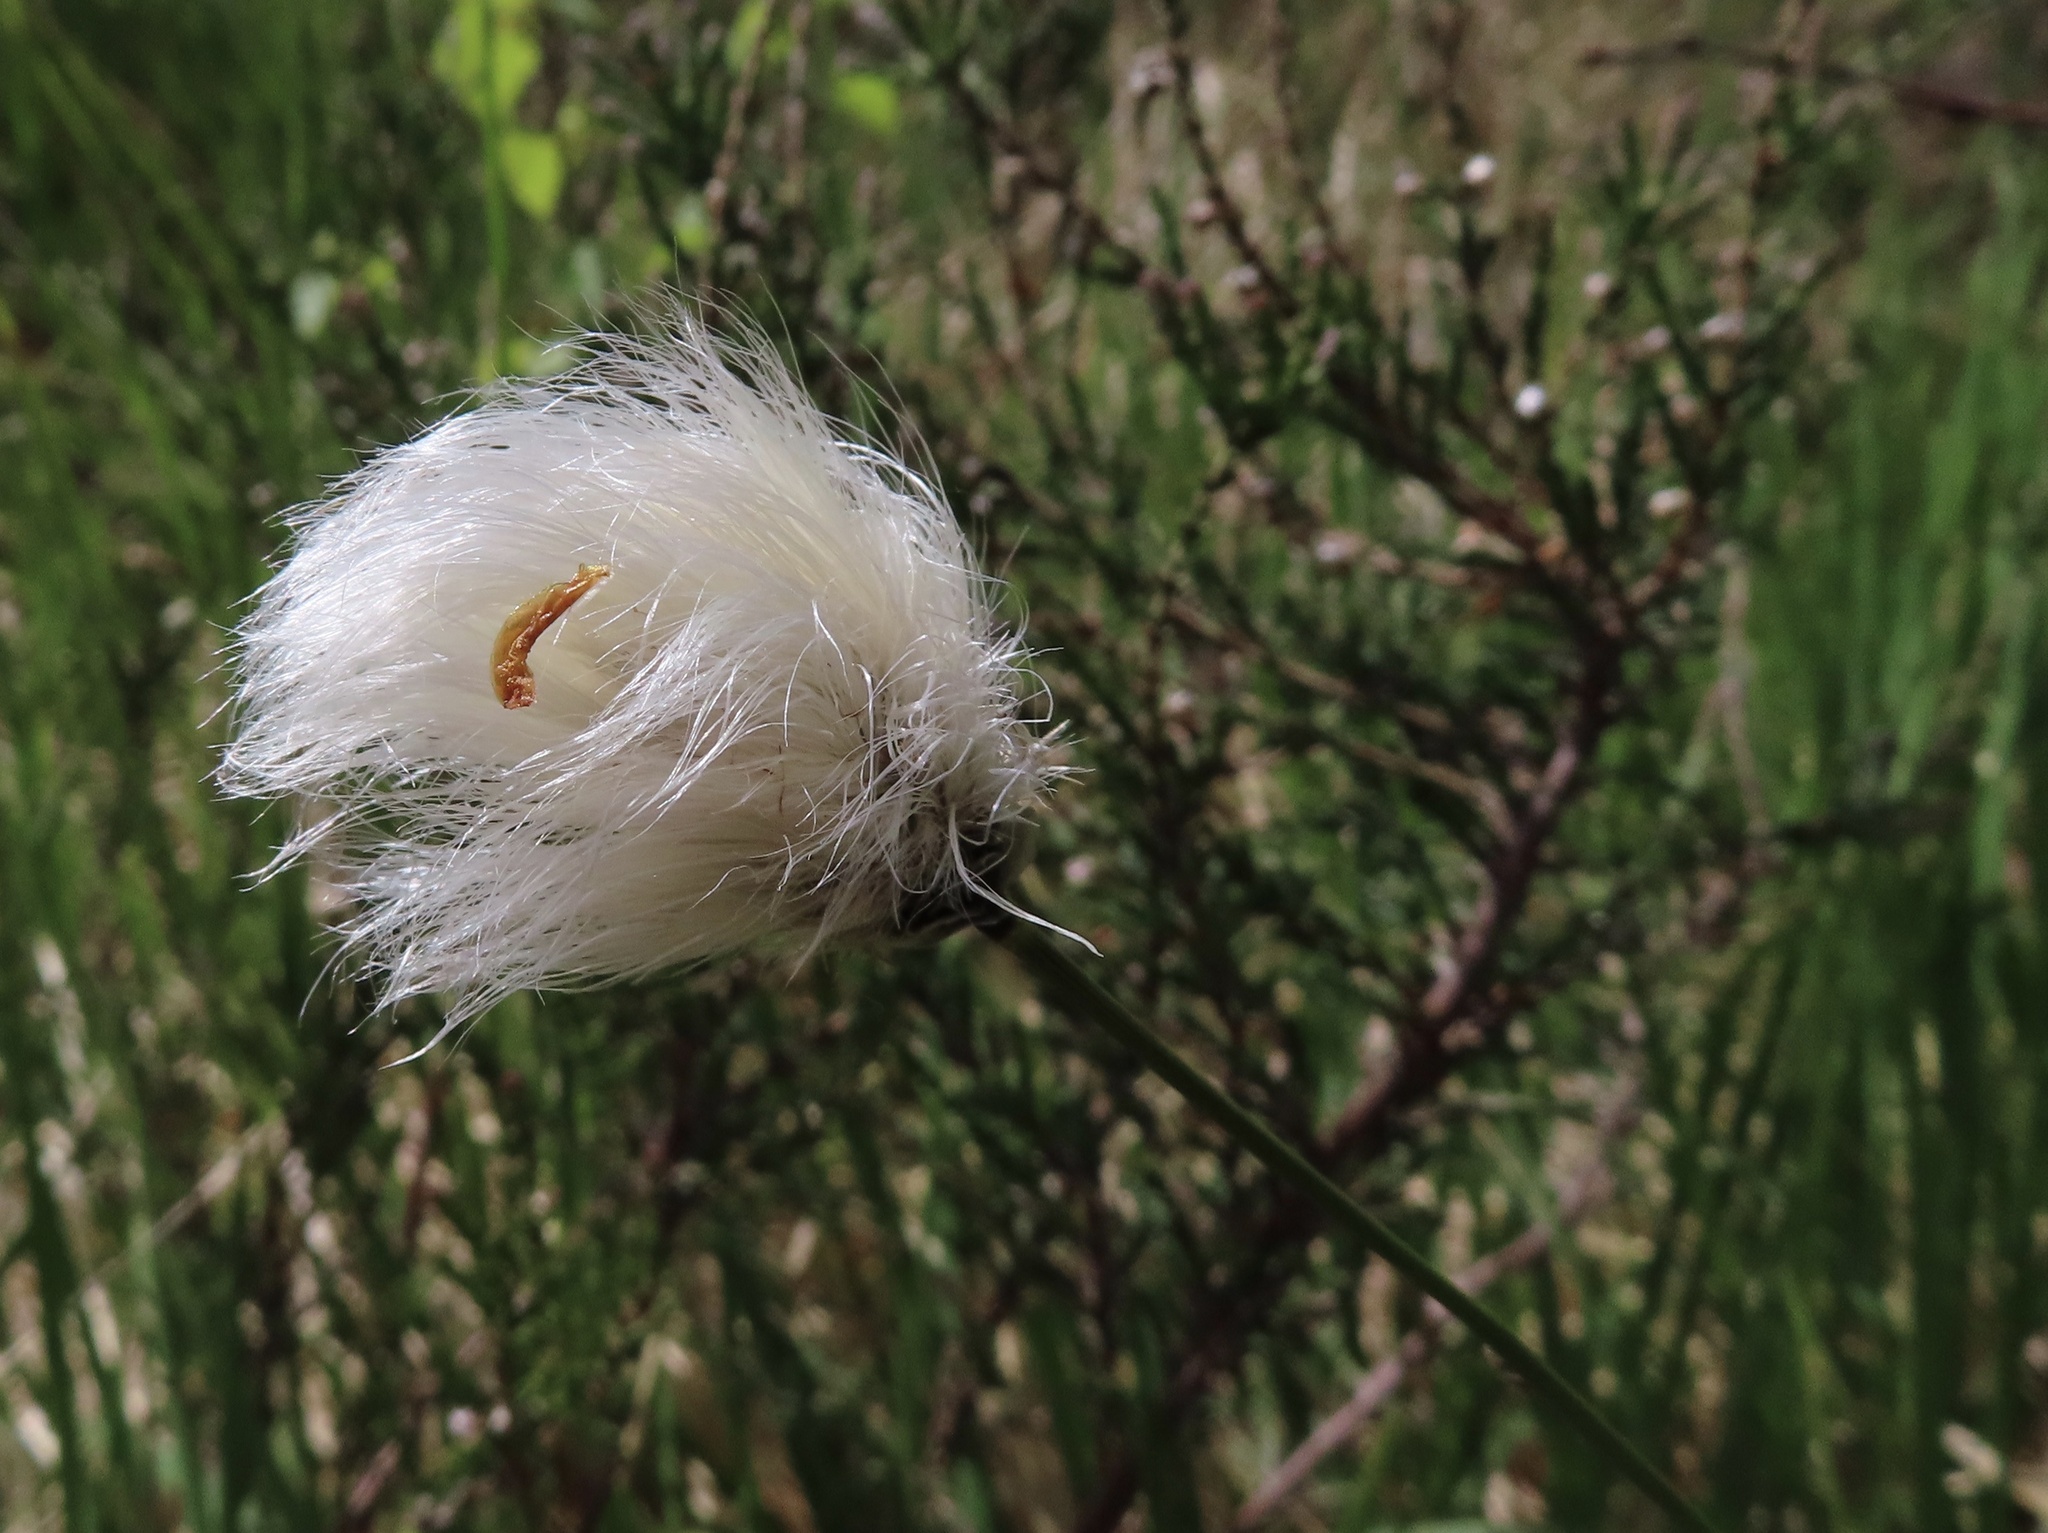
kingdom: Plantae
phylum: Tracheophyta
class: Liliopsida
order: Poales
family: Cyperaceae
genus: Eriophorum
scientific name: Eriophorum vaginatum
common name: Hare's-tail cottongrass
